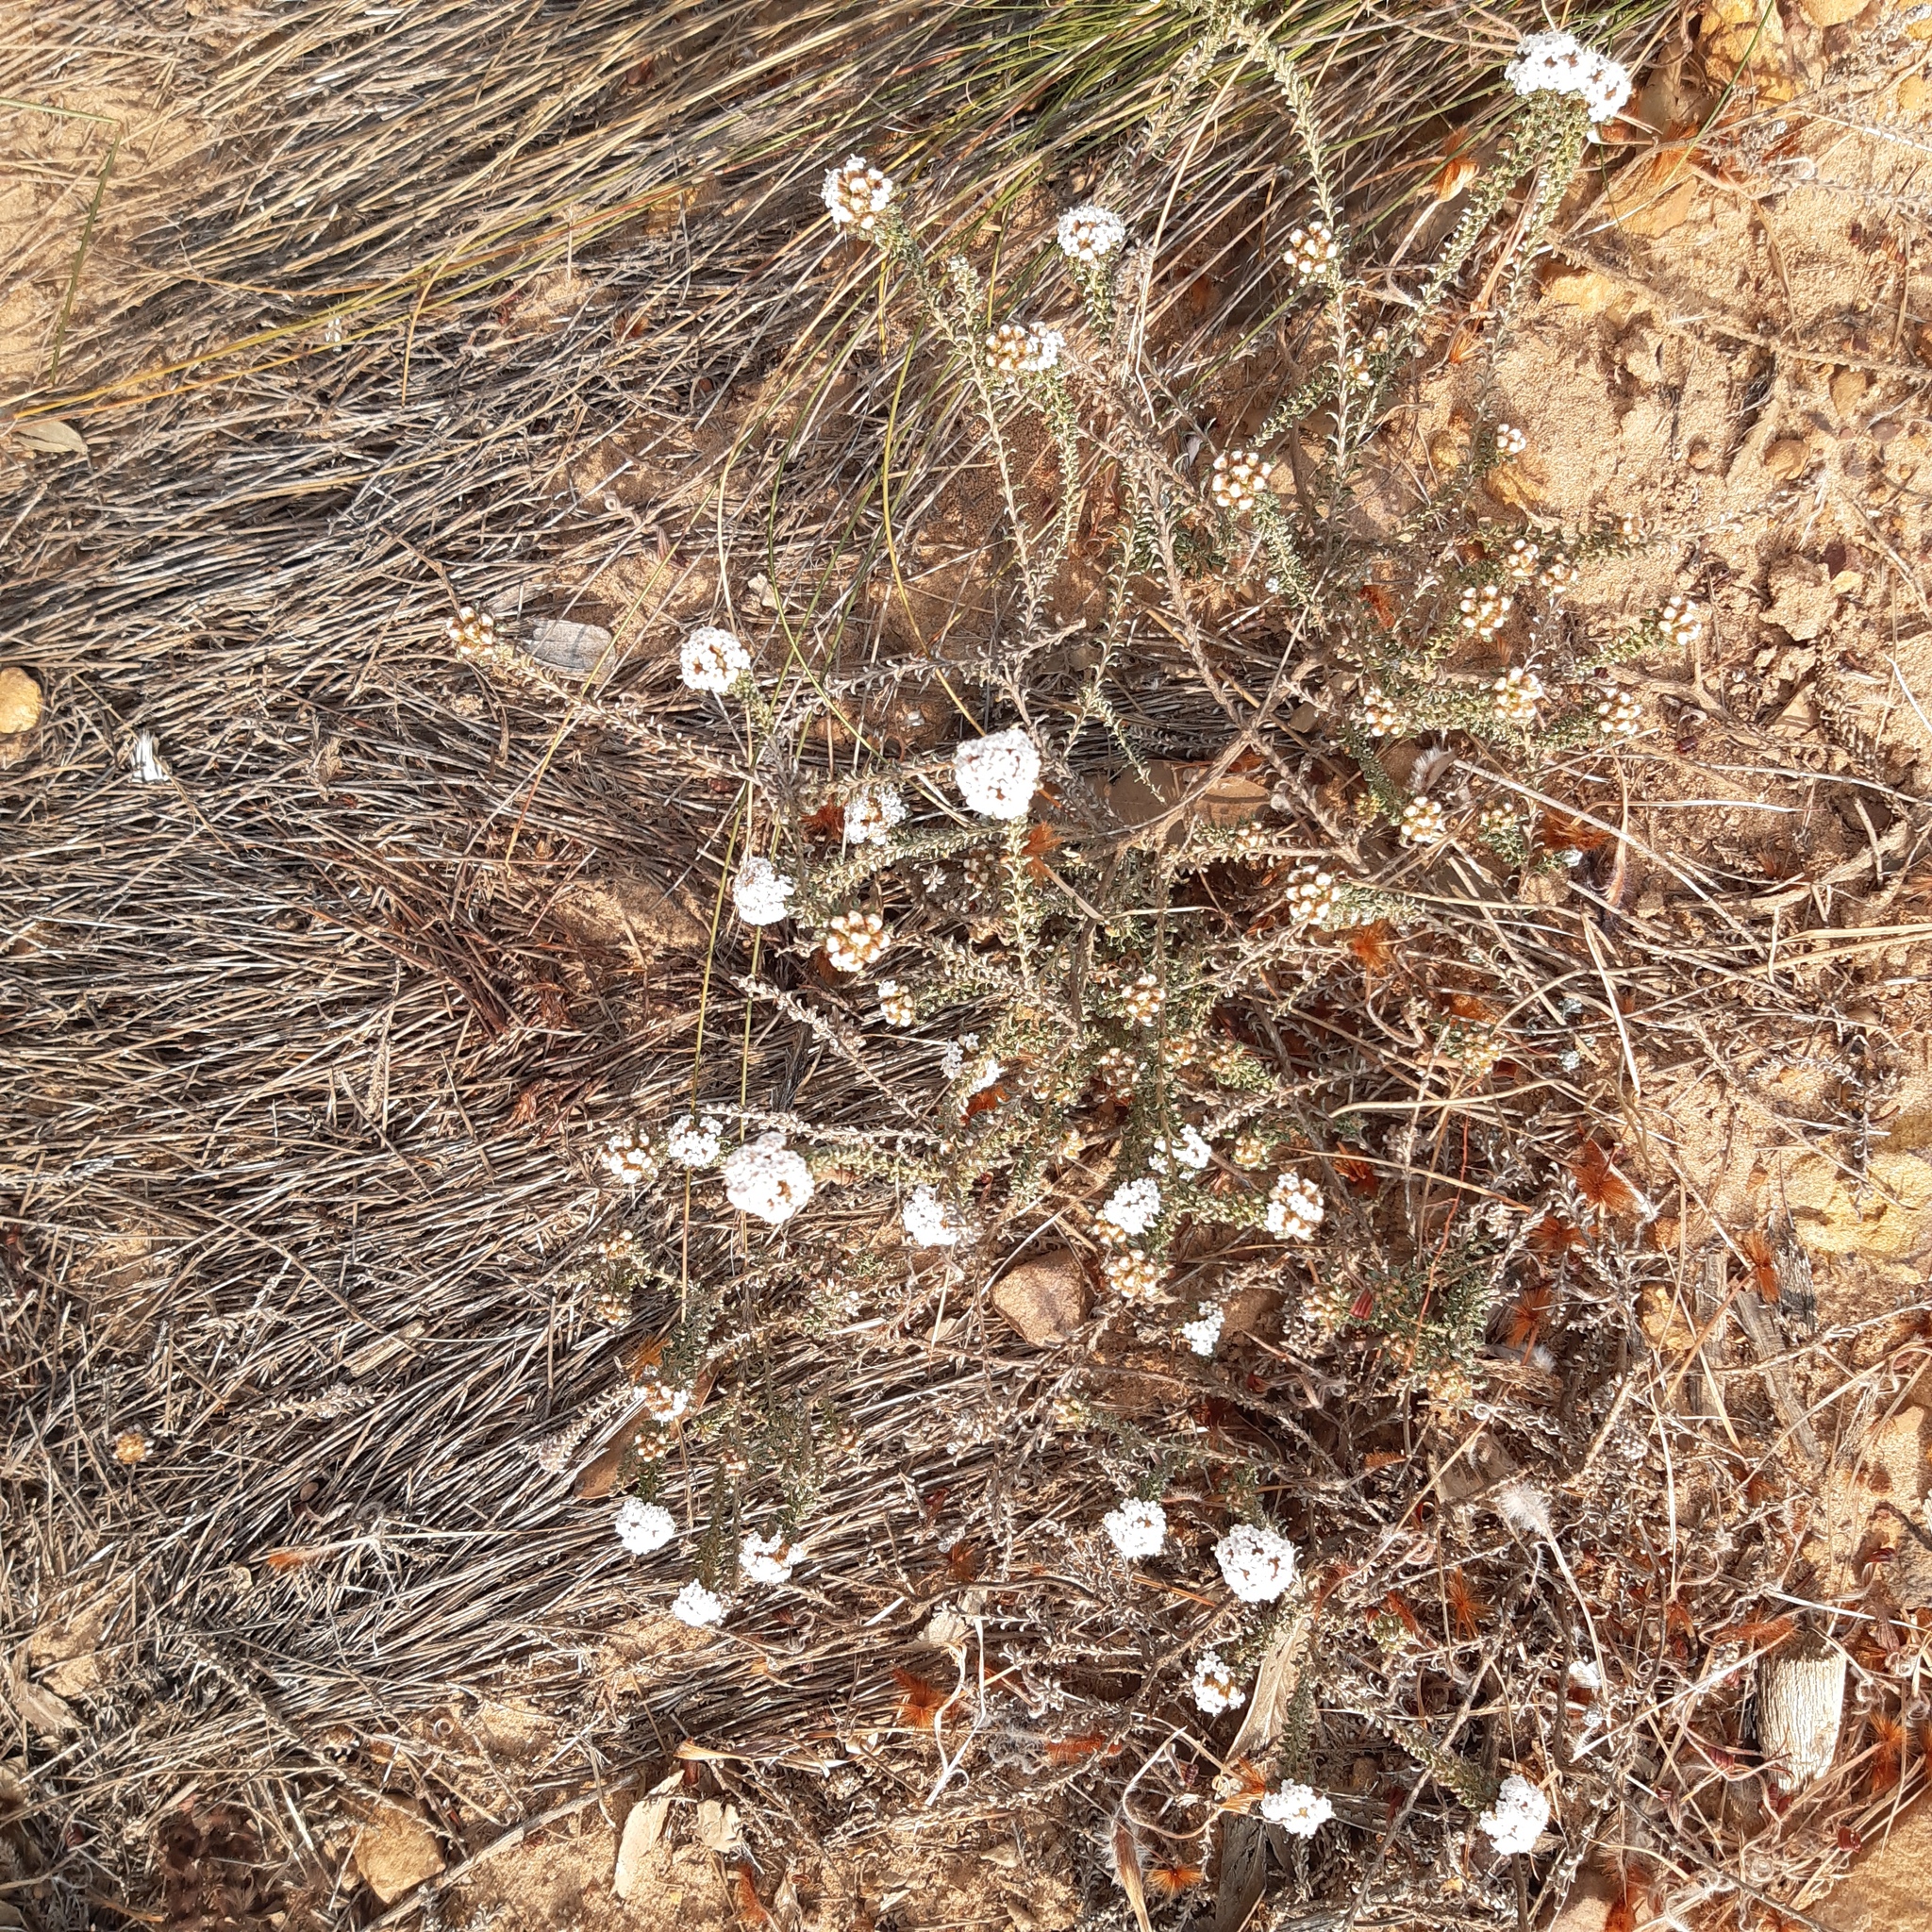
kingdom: Plantae
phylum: Tracheophyta
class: Magnoliopsida
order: Asterales
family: Asteraceae
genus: Elytropappus
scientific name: Elytropappus hispidus
